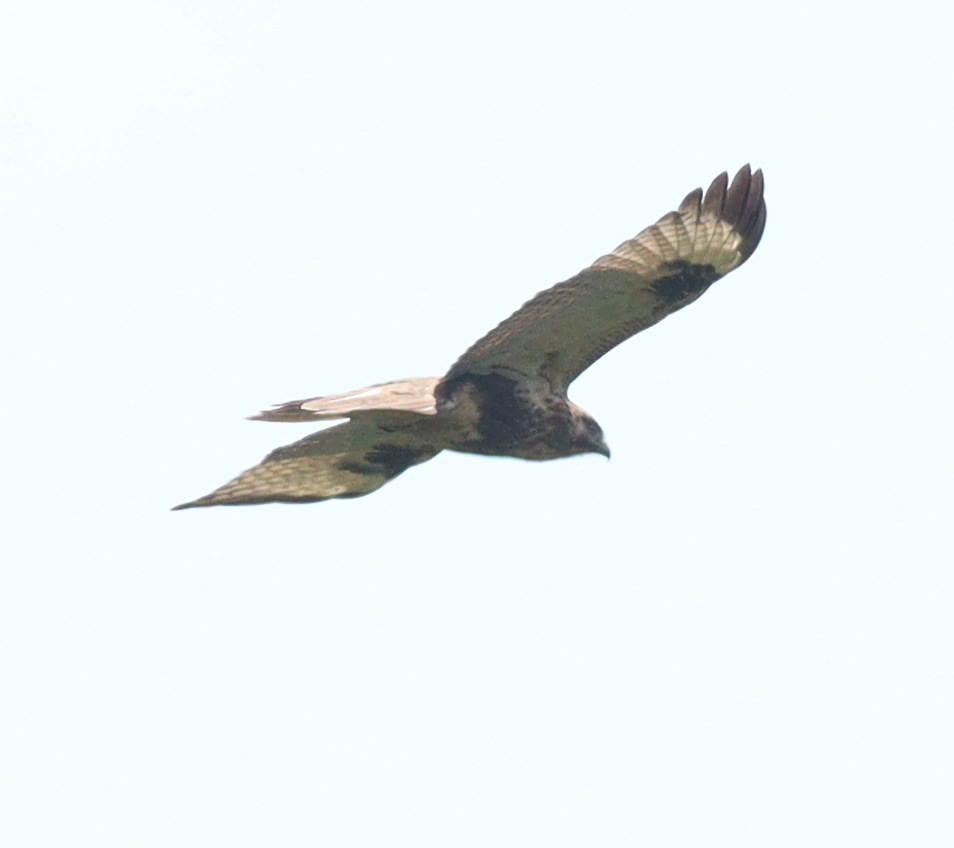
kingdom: Animalia
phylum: Chordata
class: Aves
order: Accipitriformes
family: Accipitridae
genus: Buteo
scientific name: Buteo japonicus
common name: Eastern buzzard
